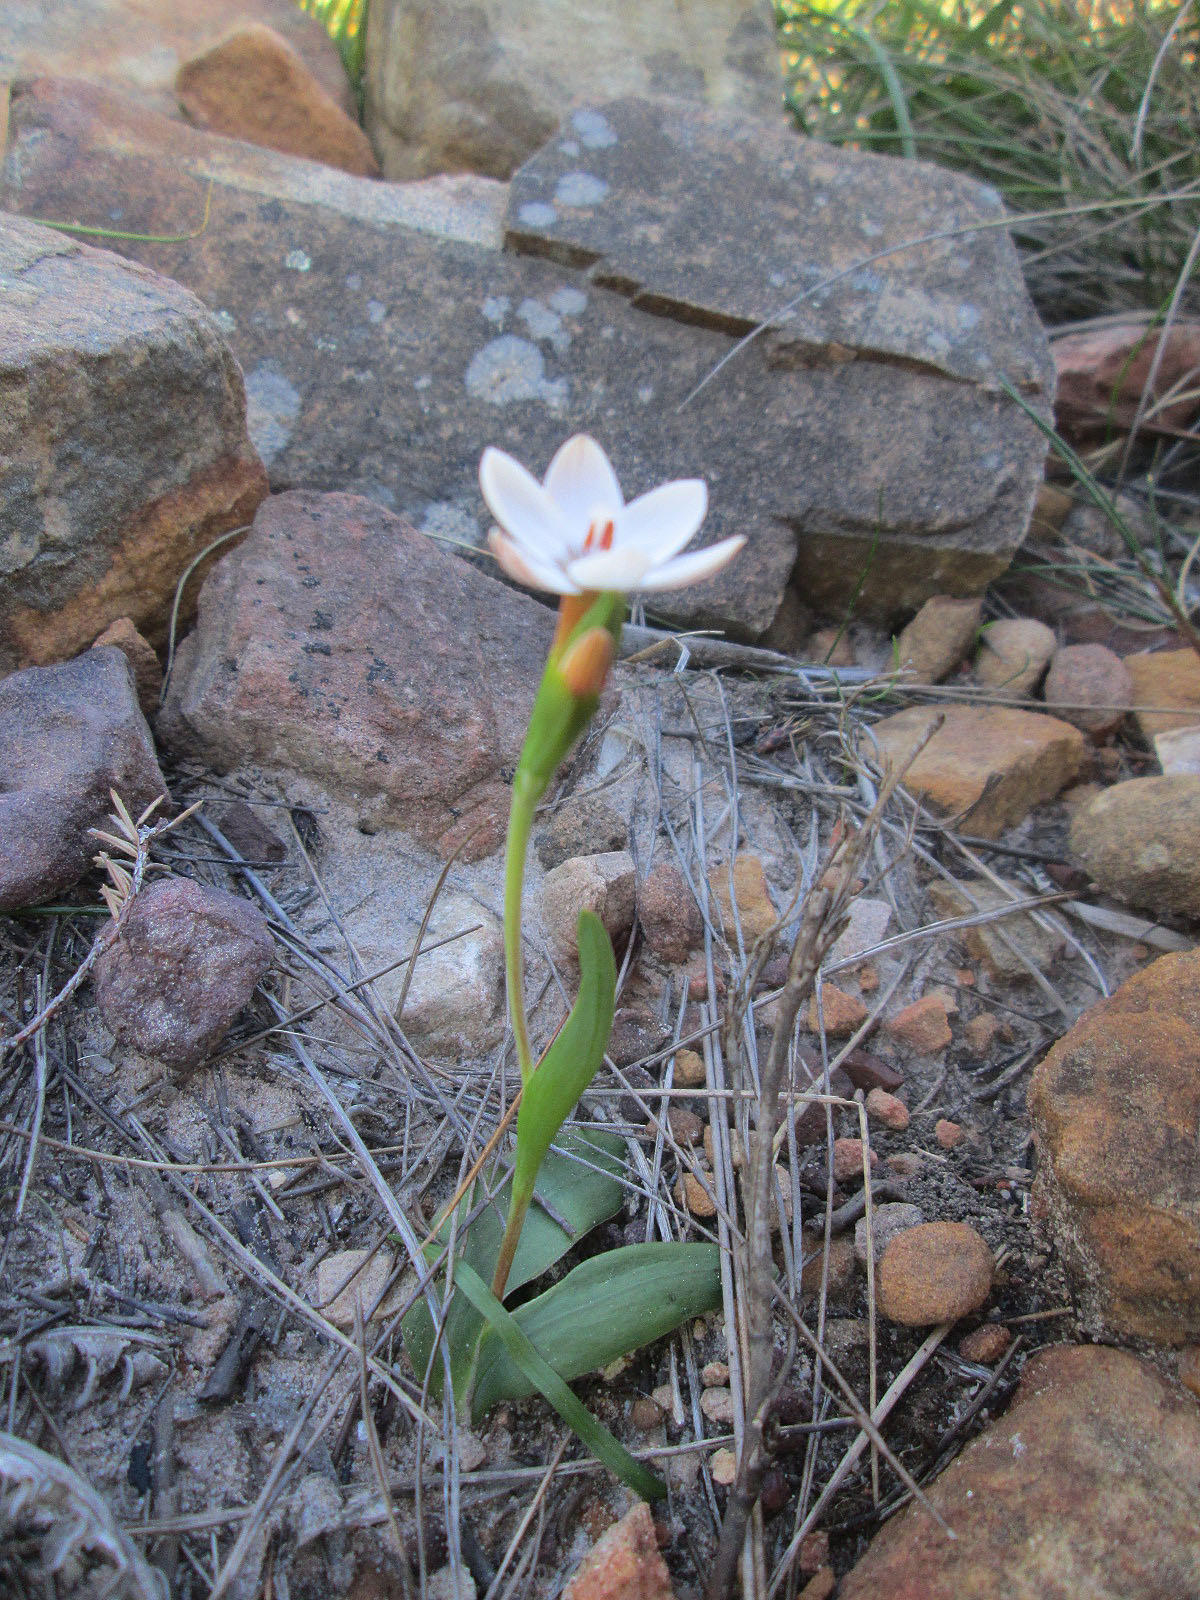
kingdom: Plantae
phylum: Tracheophyta
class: Liliopsida
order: Asparagales
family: Iridaceae
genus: Geissorhiza
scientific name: Geissorhiza ovata
